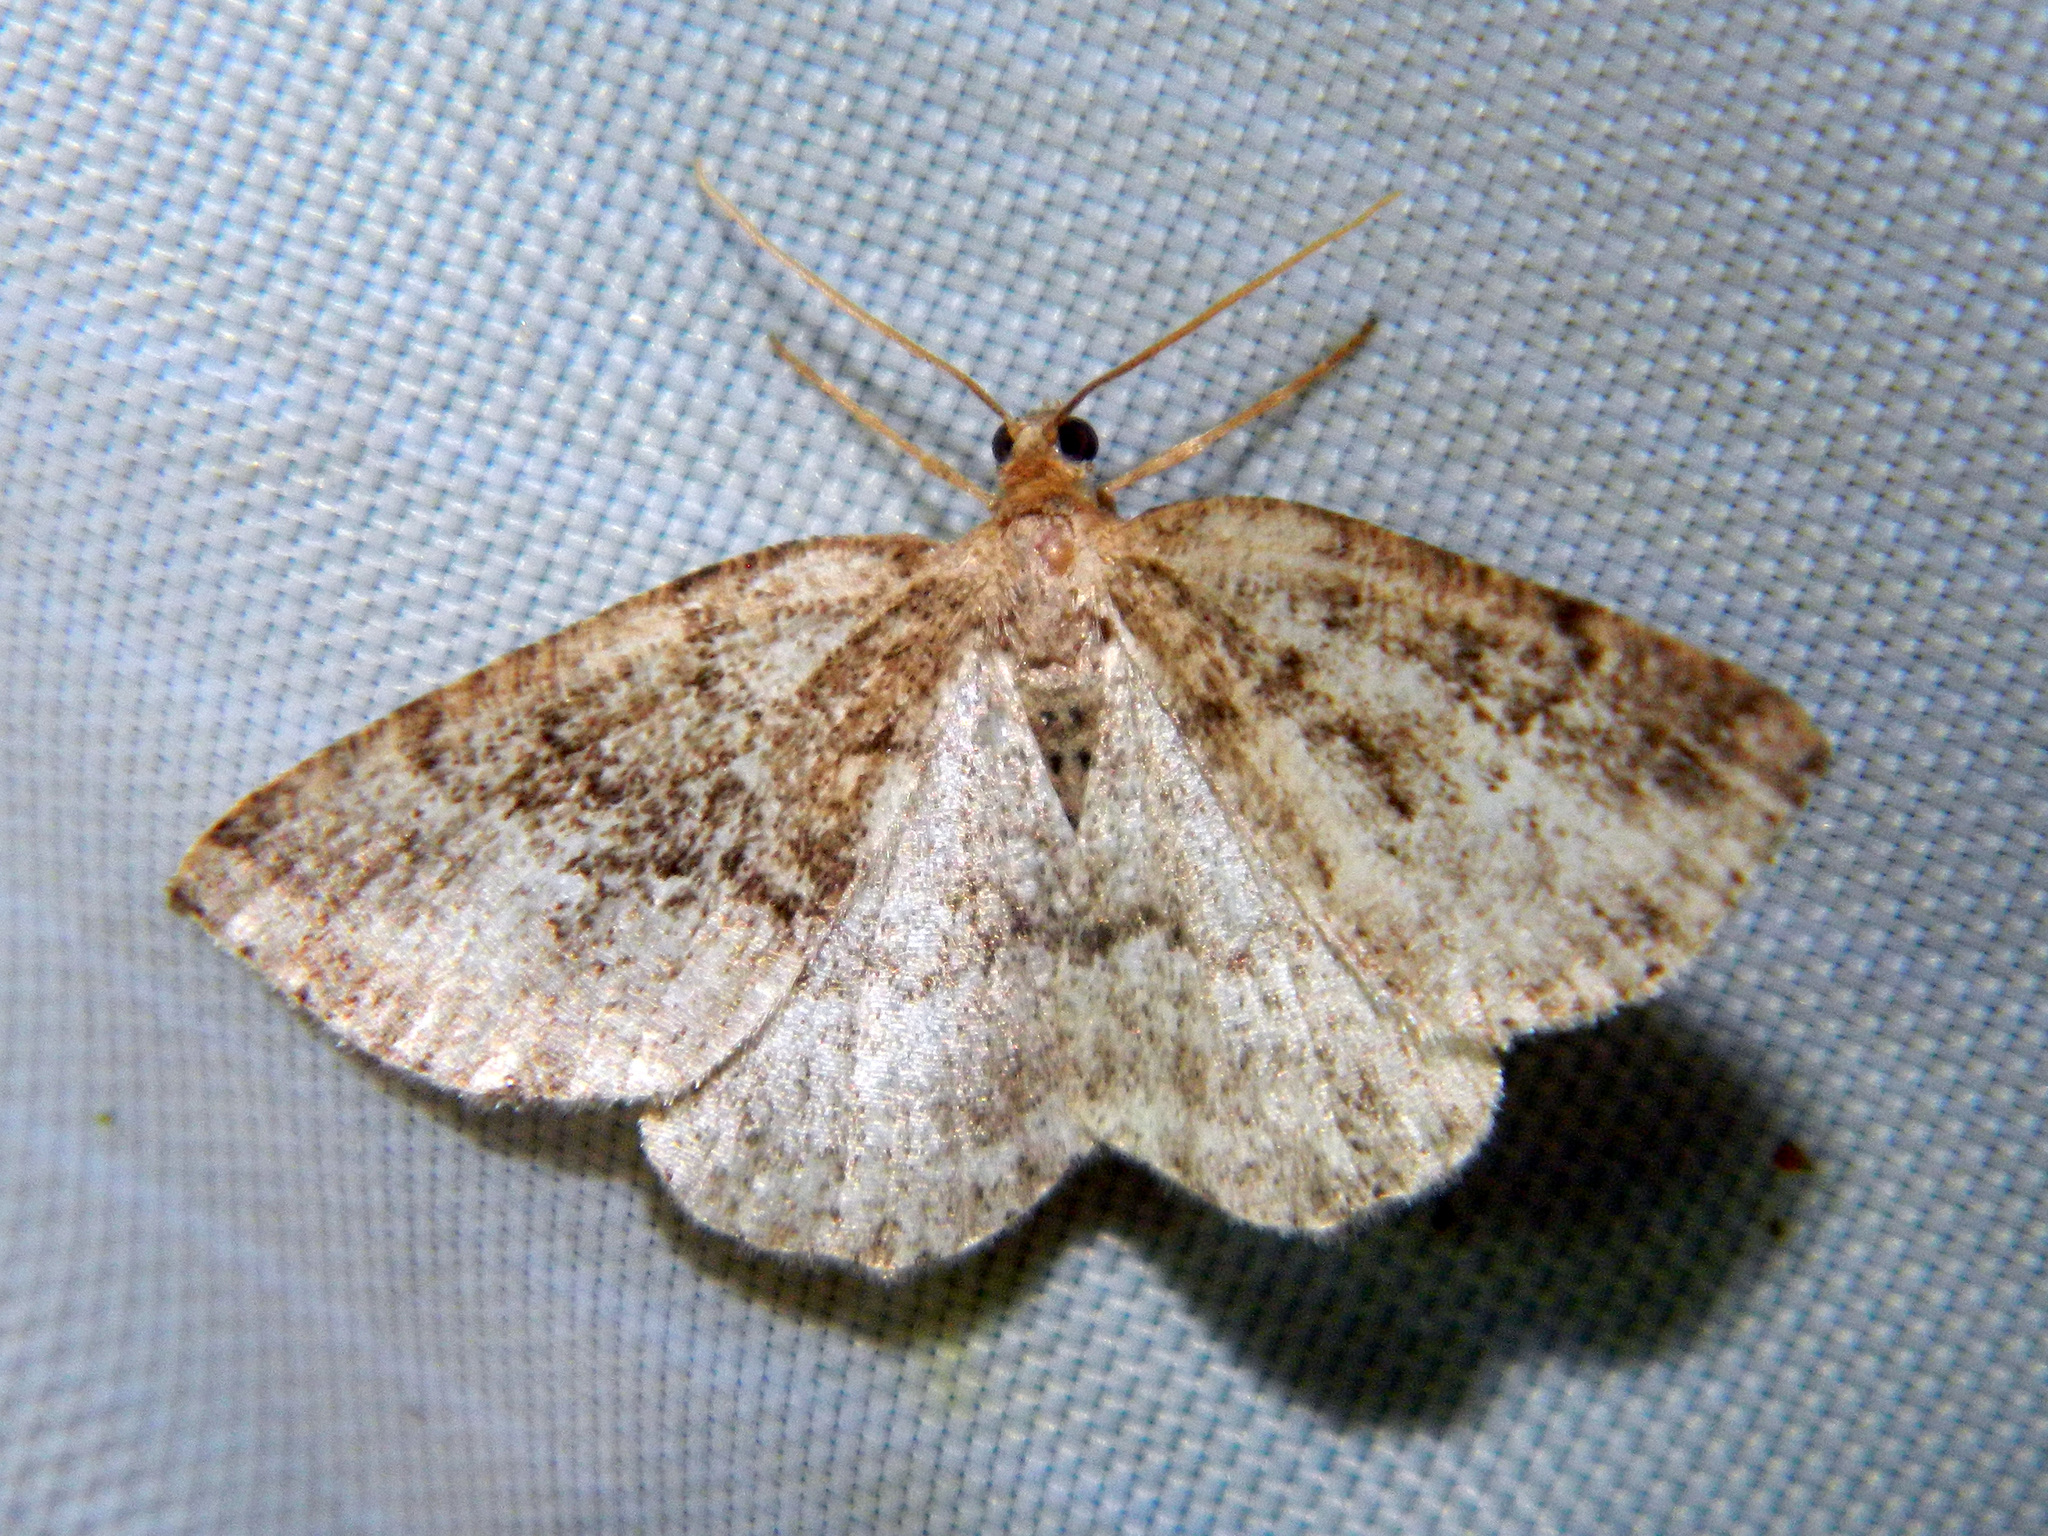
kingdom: Animalia
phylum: Arthropoda
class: Insecta
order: Lepidoptera
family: Geometridae
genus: Homochlodes
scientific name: Homochlodes fritillaria
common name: Pale homochlodes
